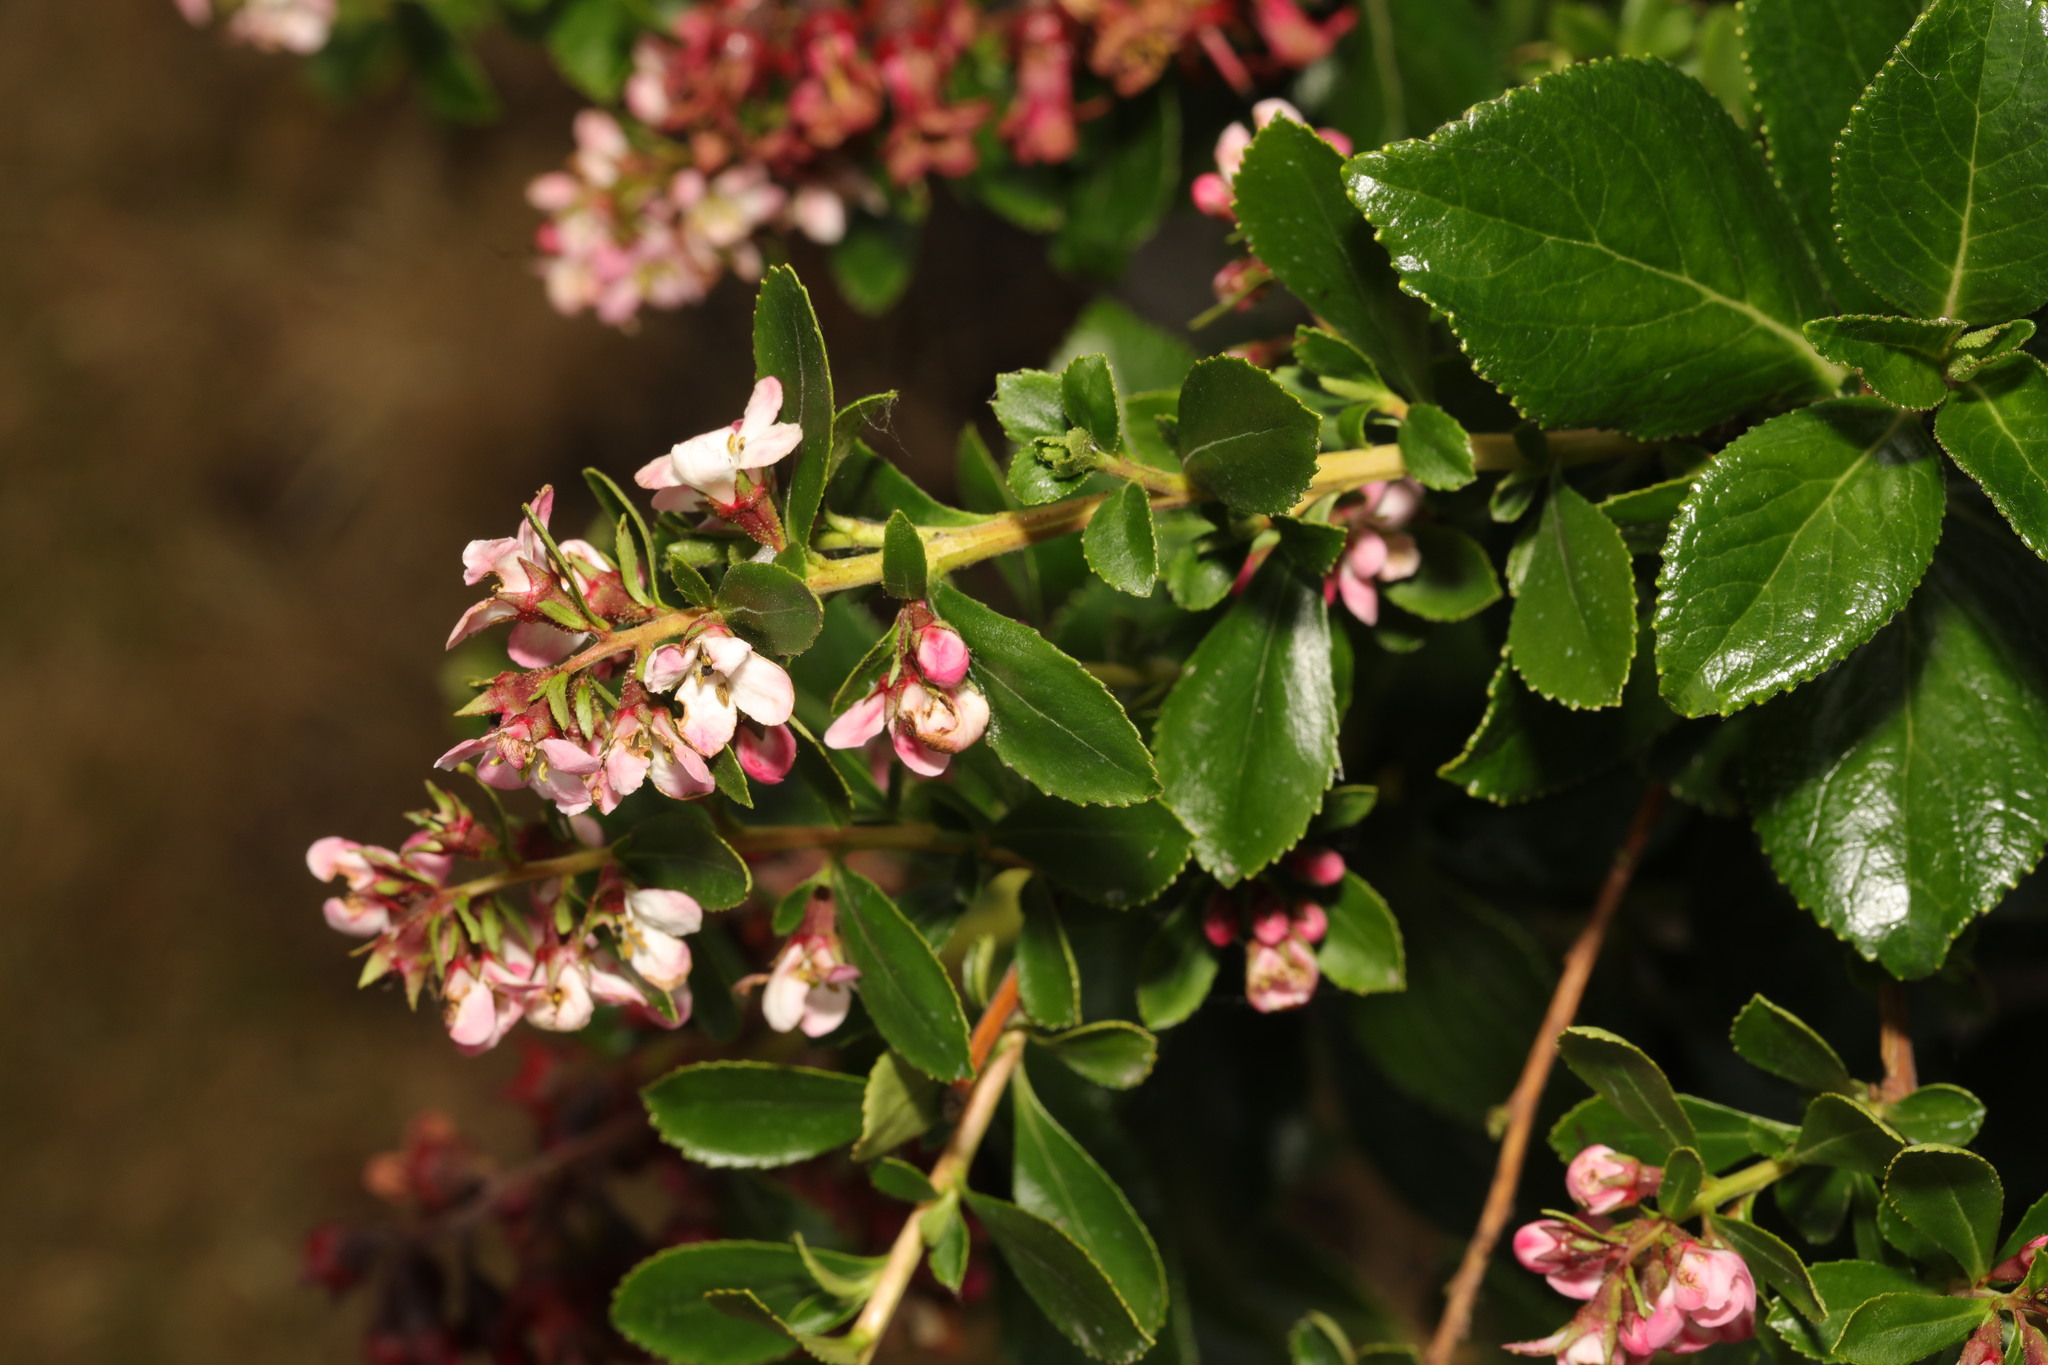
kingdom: Plantae
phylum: Tracheophyta
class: Magnoliopsida
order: Escalloniales
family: Escalloniaceae
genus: Escallonia
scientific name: Escallonia rubra
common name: Redclaws
